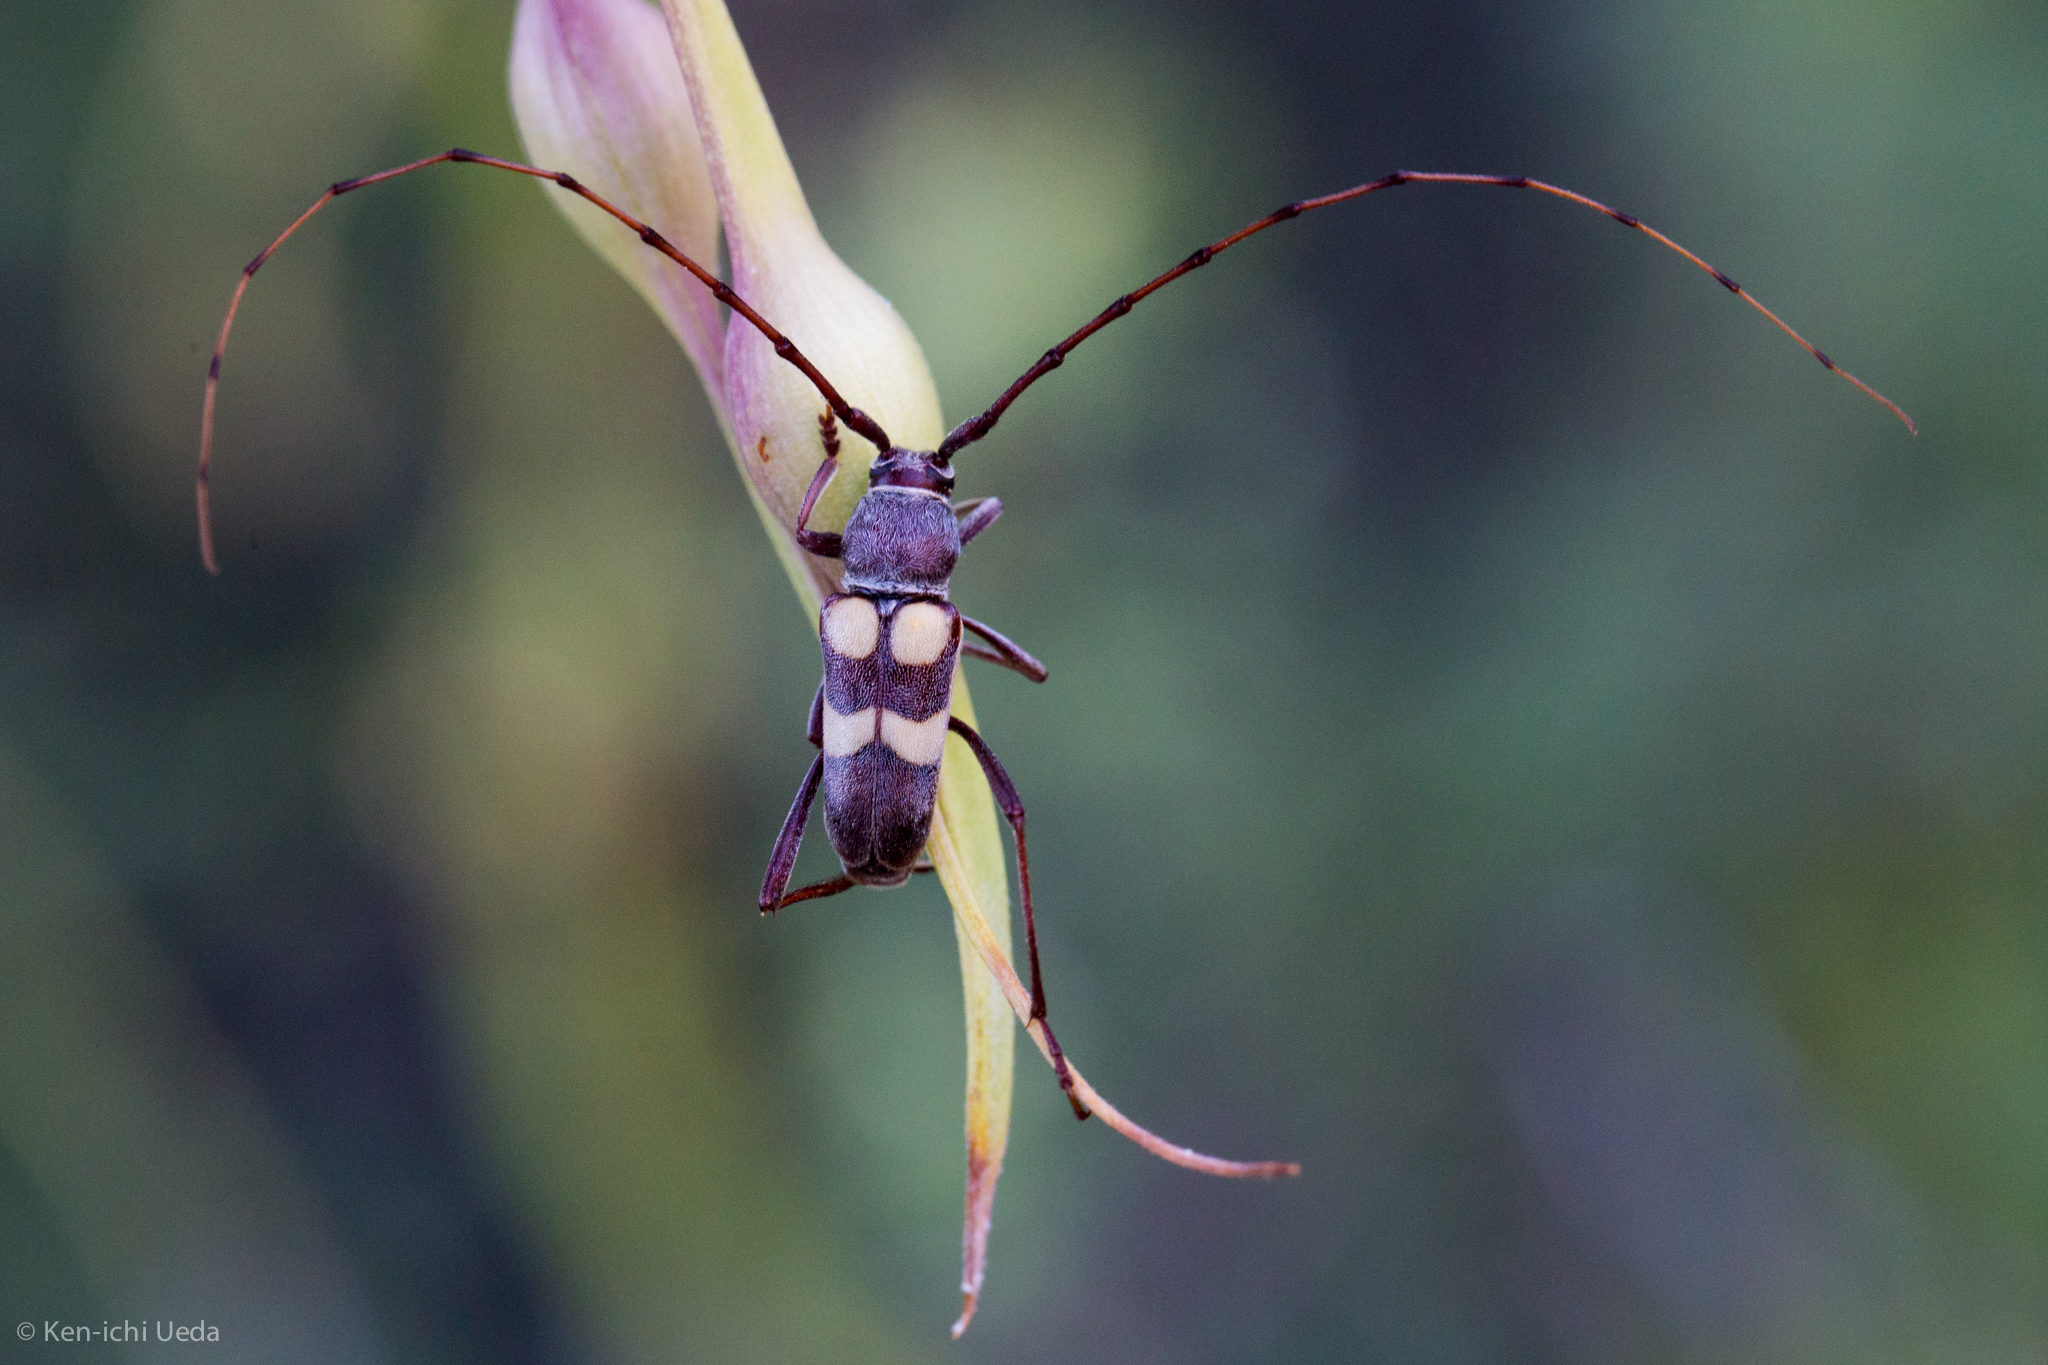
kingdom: Animalia
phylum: Arthropoda
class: Insecta
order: Coleoptera
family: Cerambycidae
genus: Aethecerinus
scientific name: Aethecerinus latecinctus
